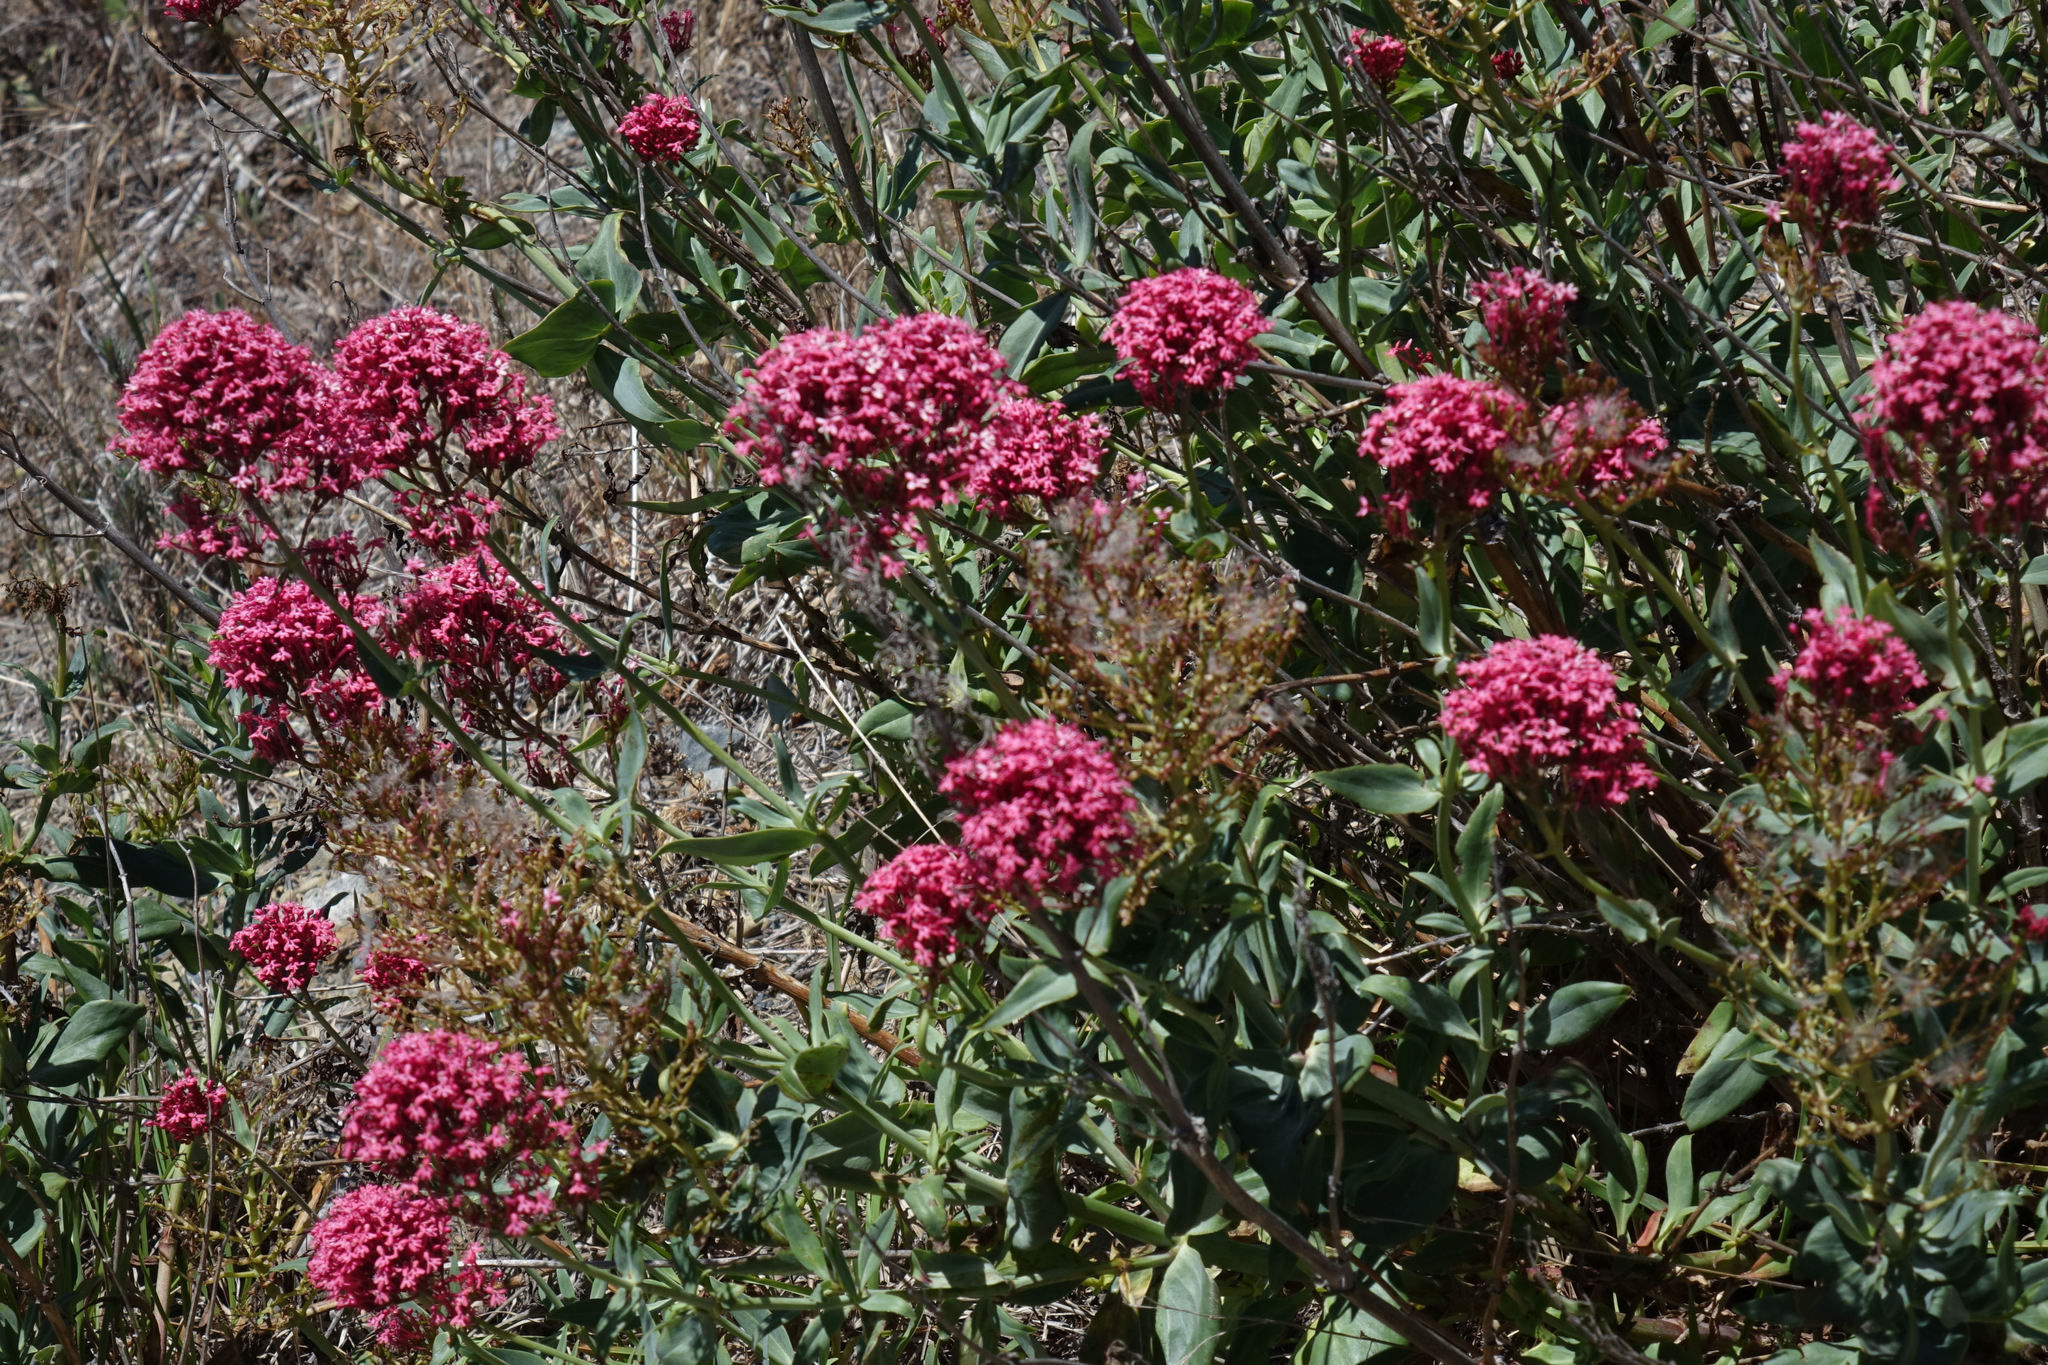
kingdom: Plantae
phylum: Tracheophyta
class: Magnoliopsida
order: Dipsacales
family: Caprifoliaceae
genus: Centranthus
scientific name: Centranthus ruber
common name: Red valerian
